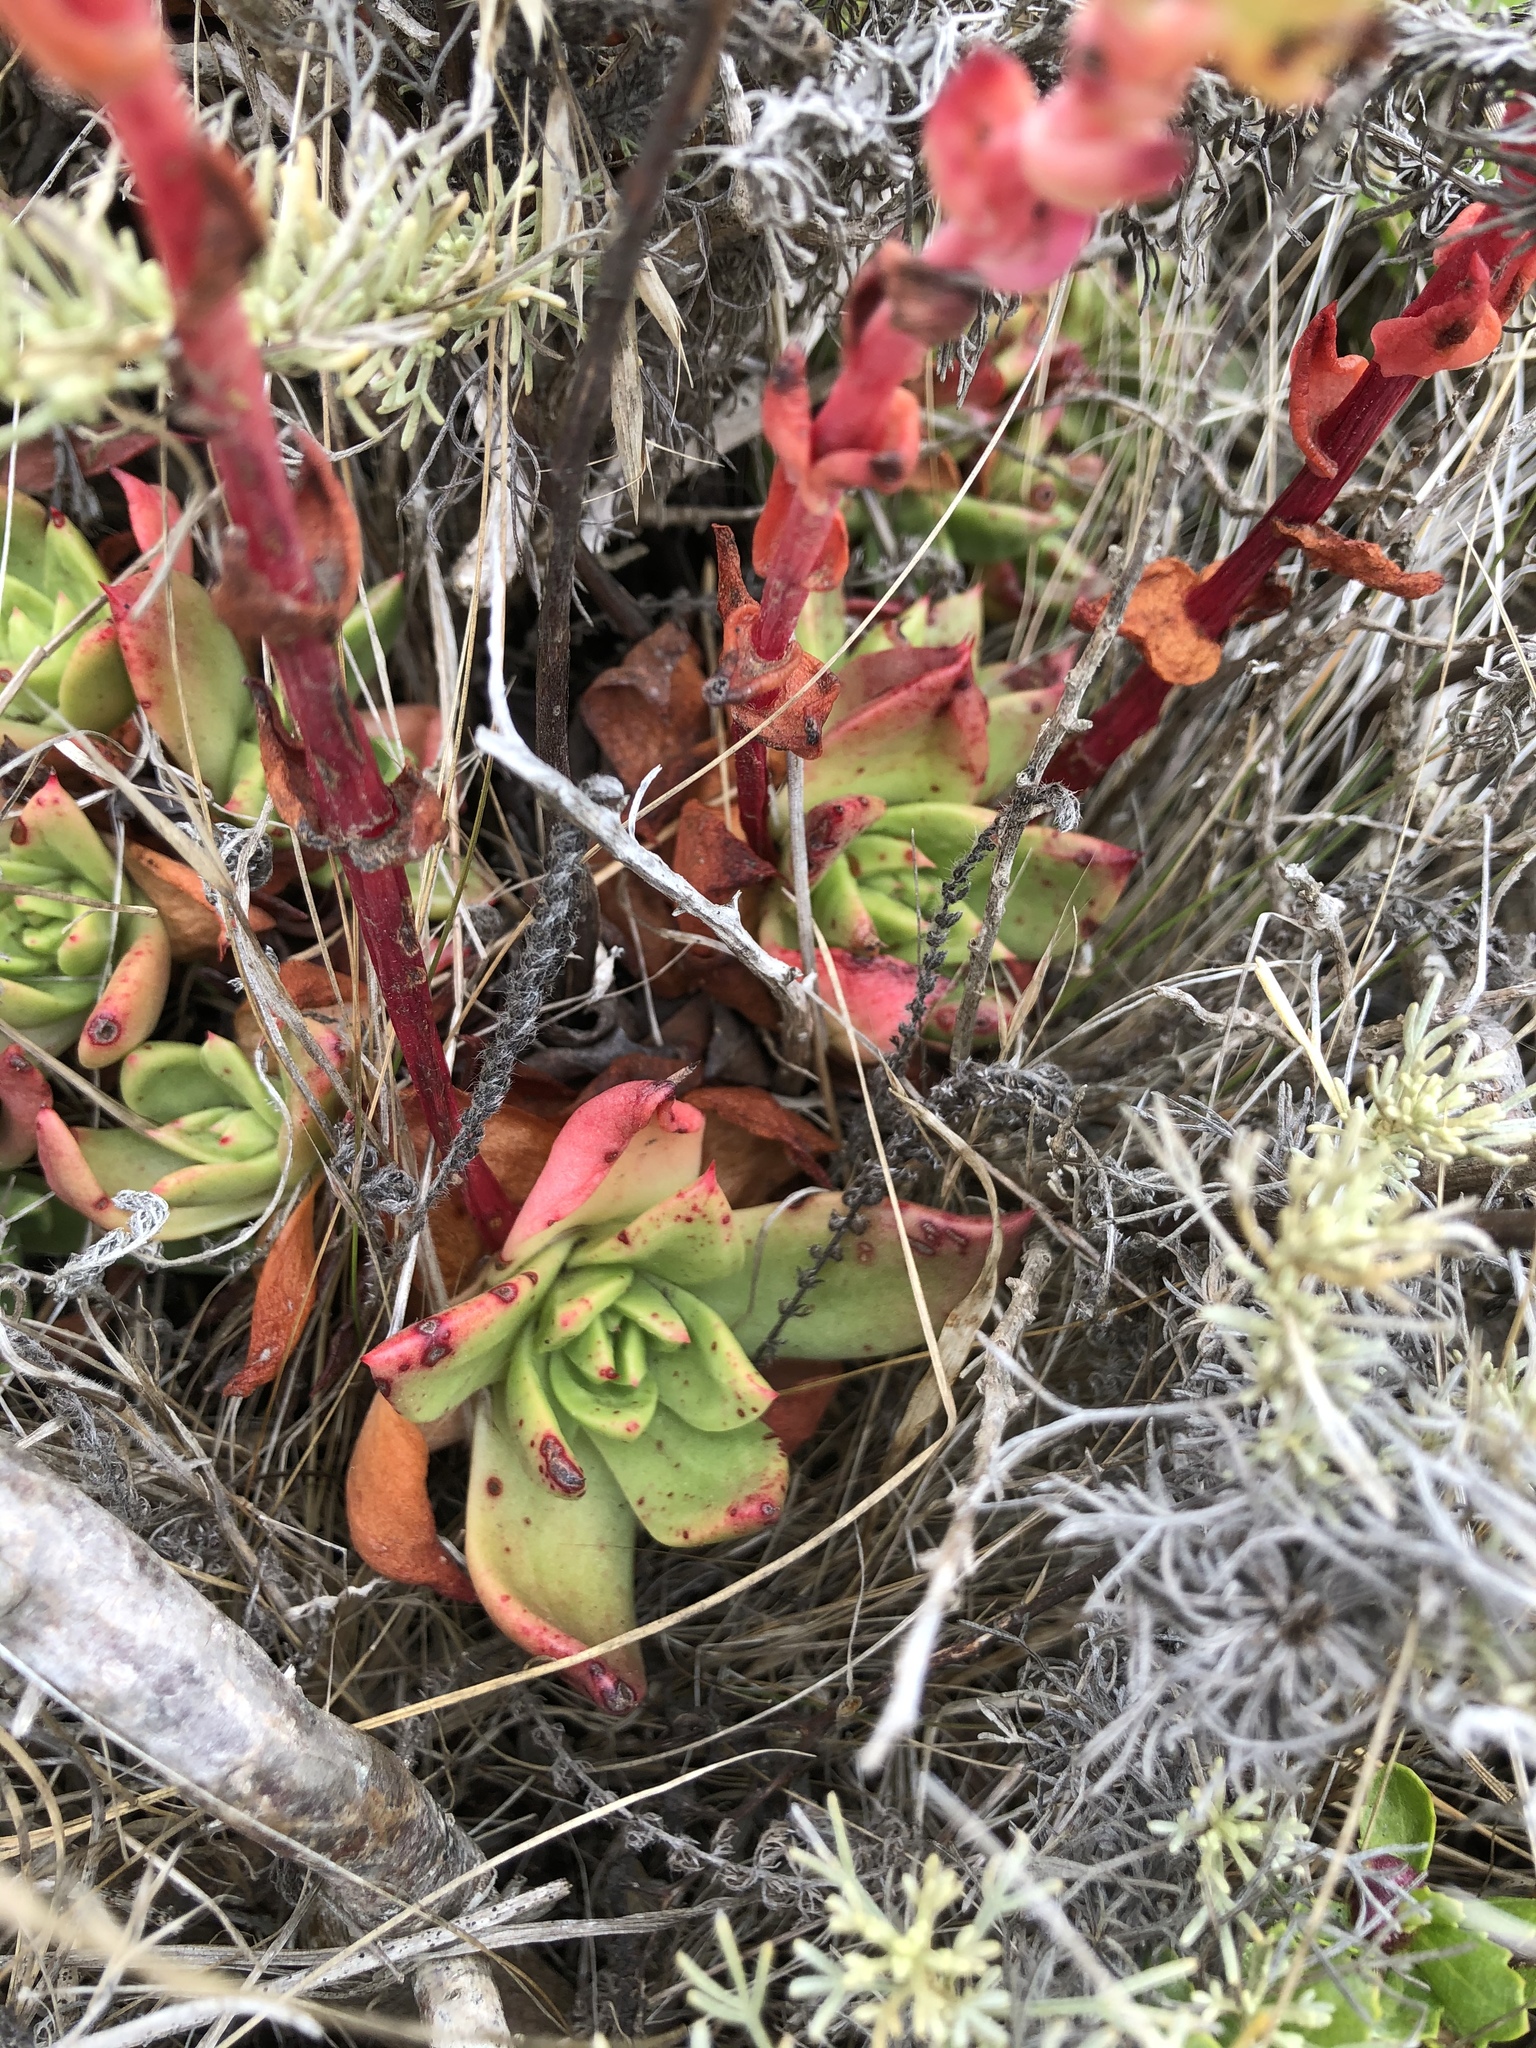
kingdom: Plantae
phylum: Tracheophyta
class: Magnoliopsida
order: Saxifragales
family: Crassulaceae
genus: Dudleya
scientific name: Dudleya farinosa
